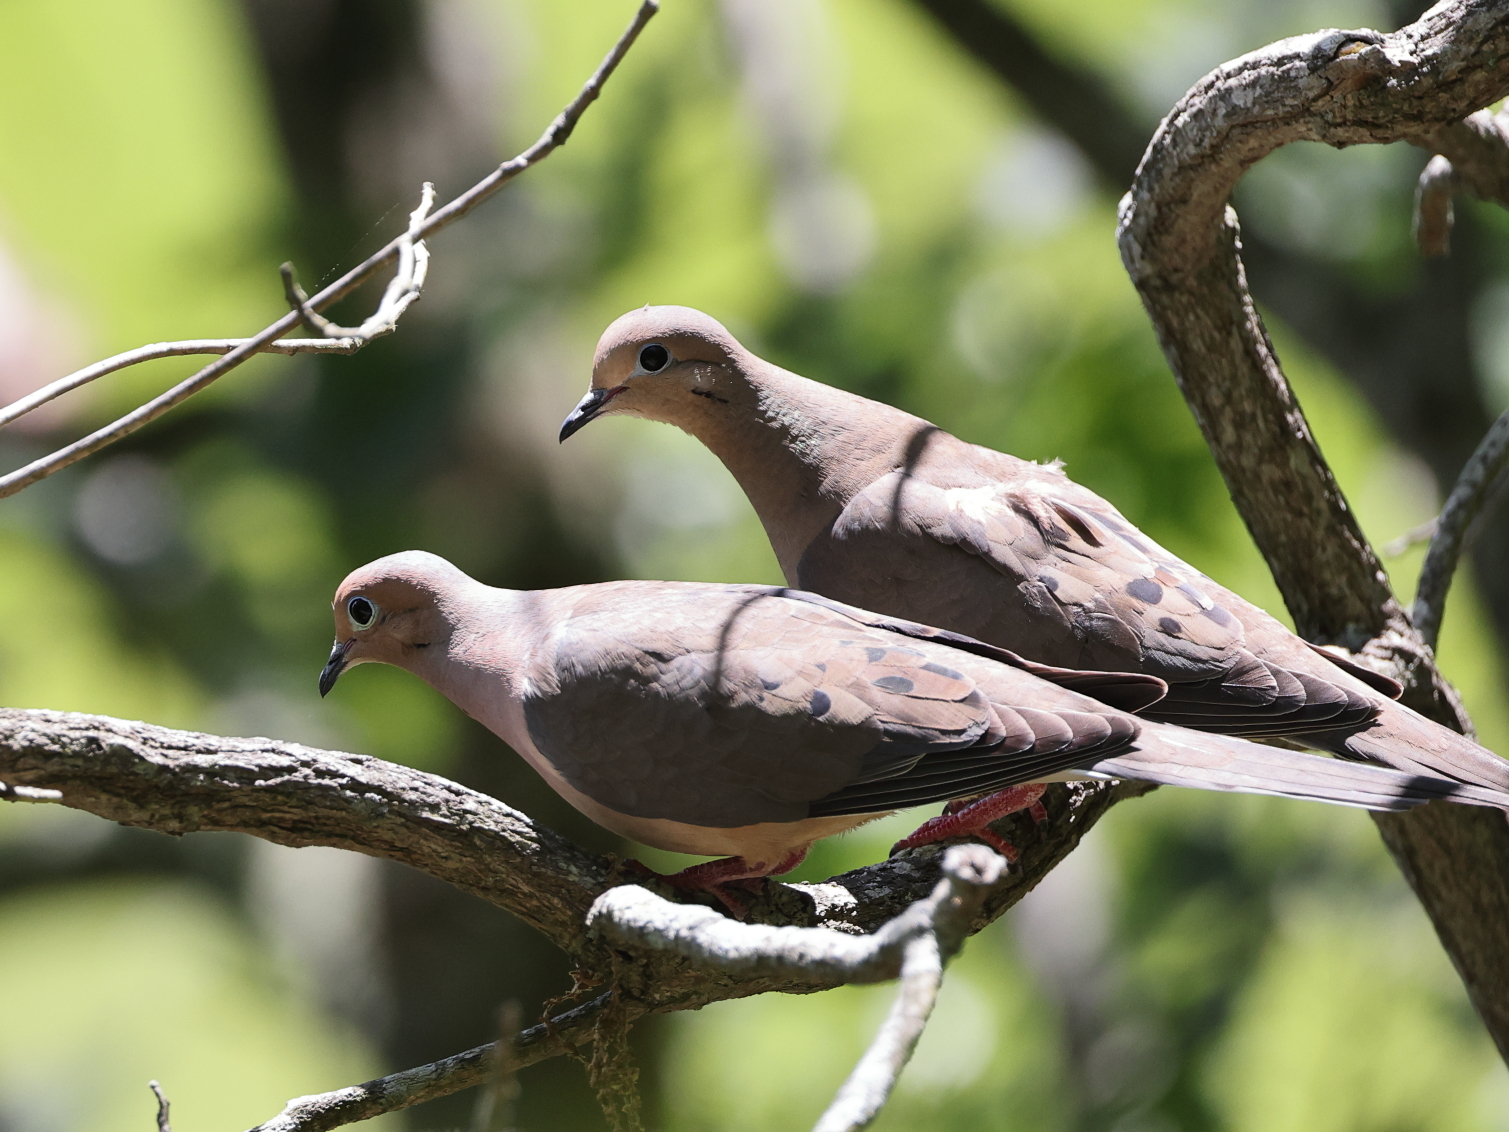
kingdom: Animalia
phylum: Chordata
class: Aves
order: Columbiformes
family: Columbidae
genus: Zenaida
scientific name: Zenaida macroura
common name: Mourning dove
